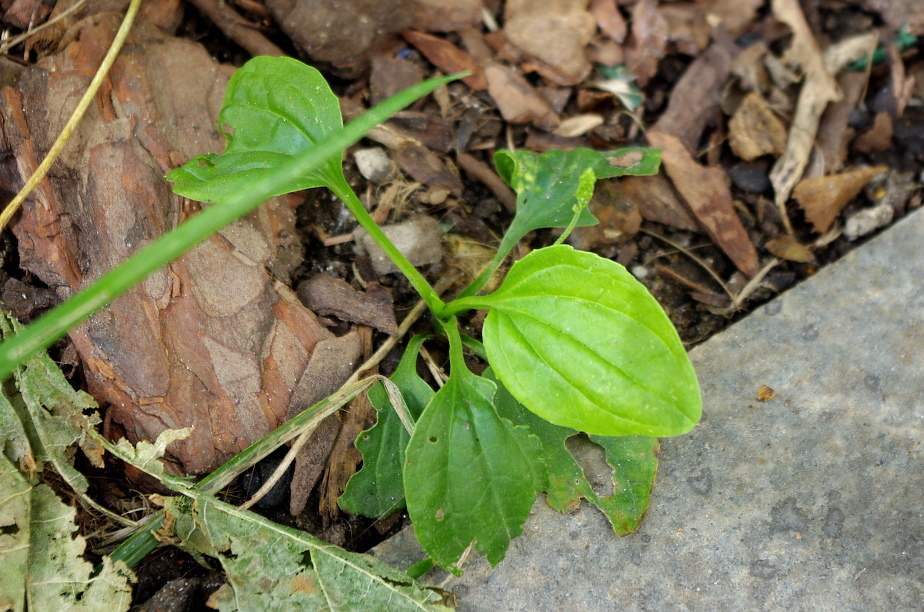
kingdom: Plantae
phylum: Tracheophyta
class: Magnoliopsida
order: Lamiales
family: Plantaginaceae
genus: Plantago
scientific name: Plantago major
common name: Common plantain
